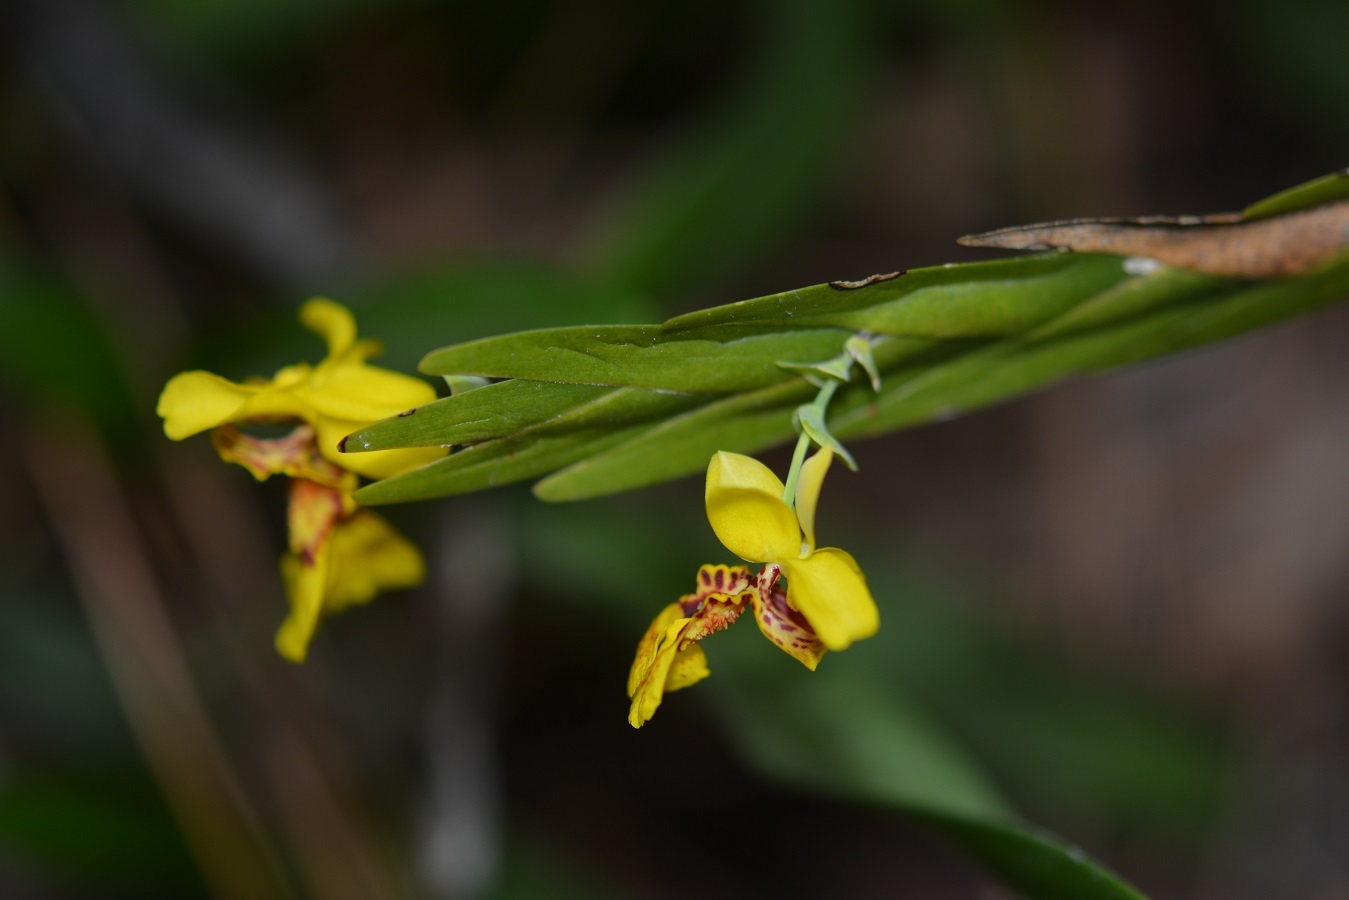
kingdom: Plantae
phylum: Tracheophyta
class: Liliopsida
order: Asparagales
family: Orchidaceae
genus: Lockhartia
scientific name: Lockhartia oerstedii
